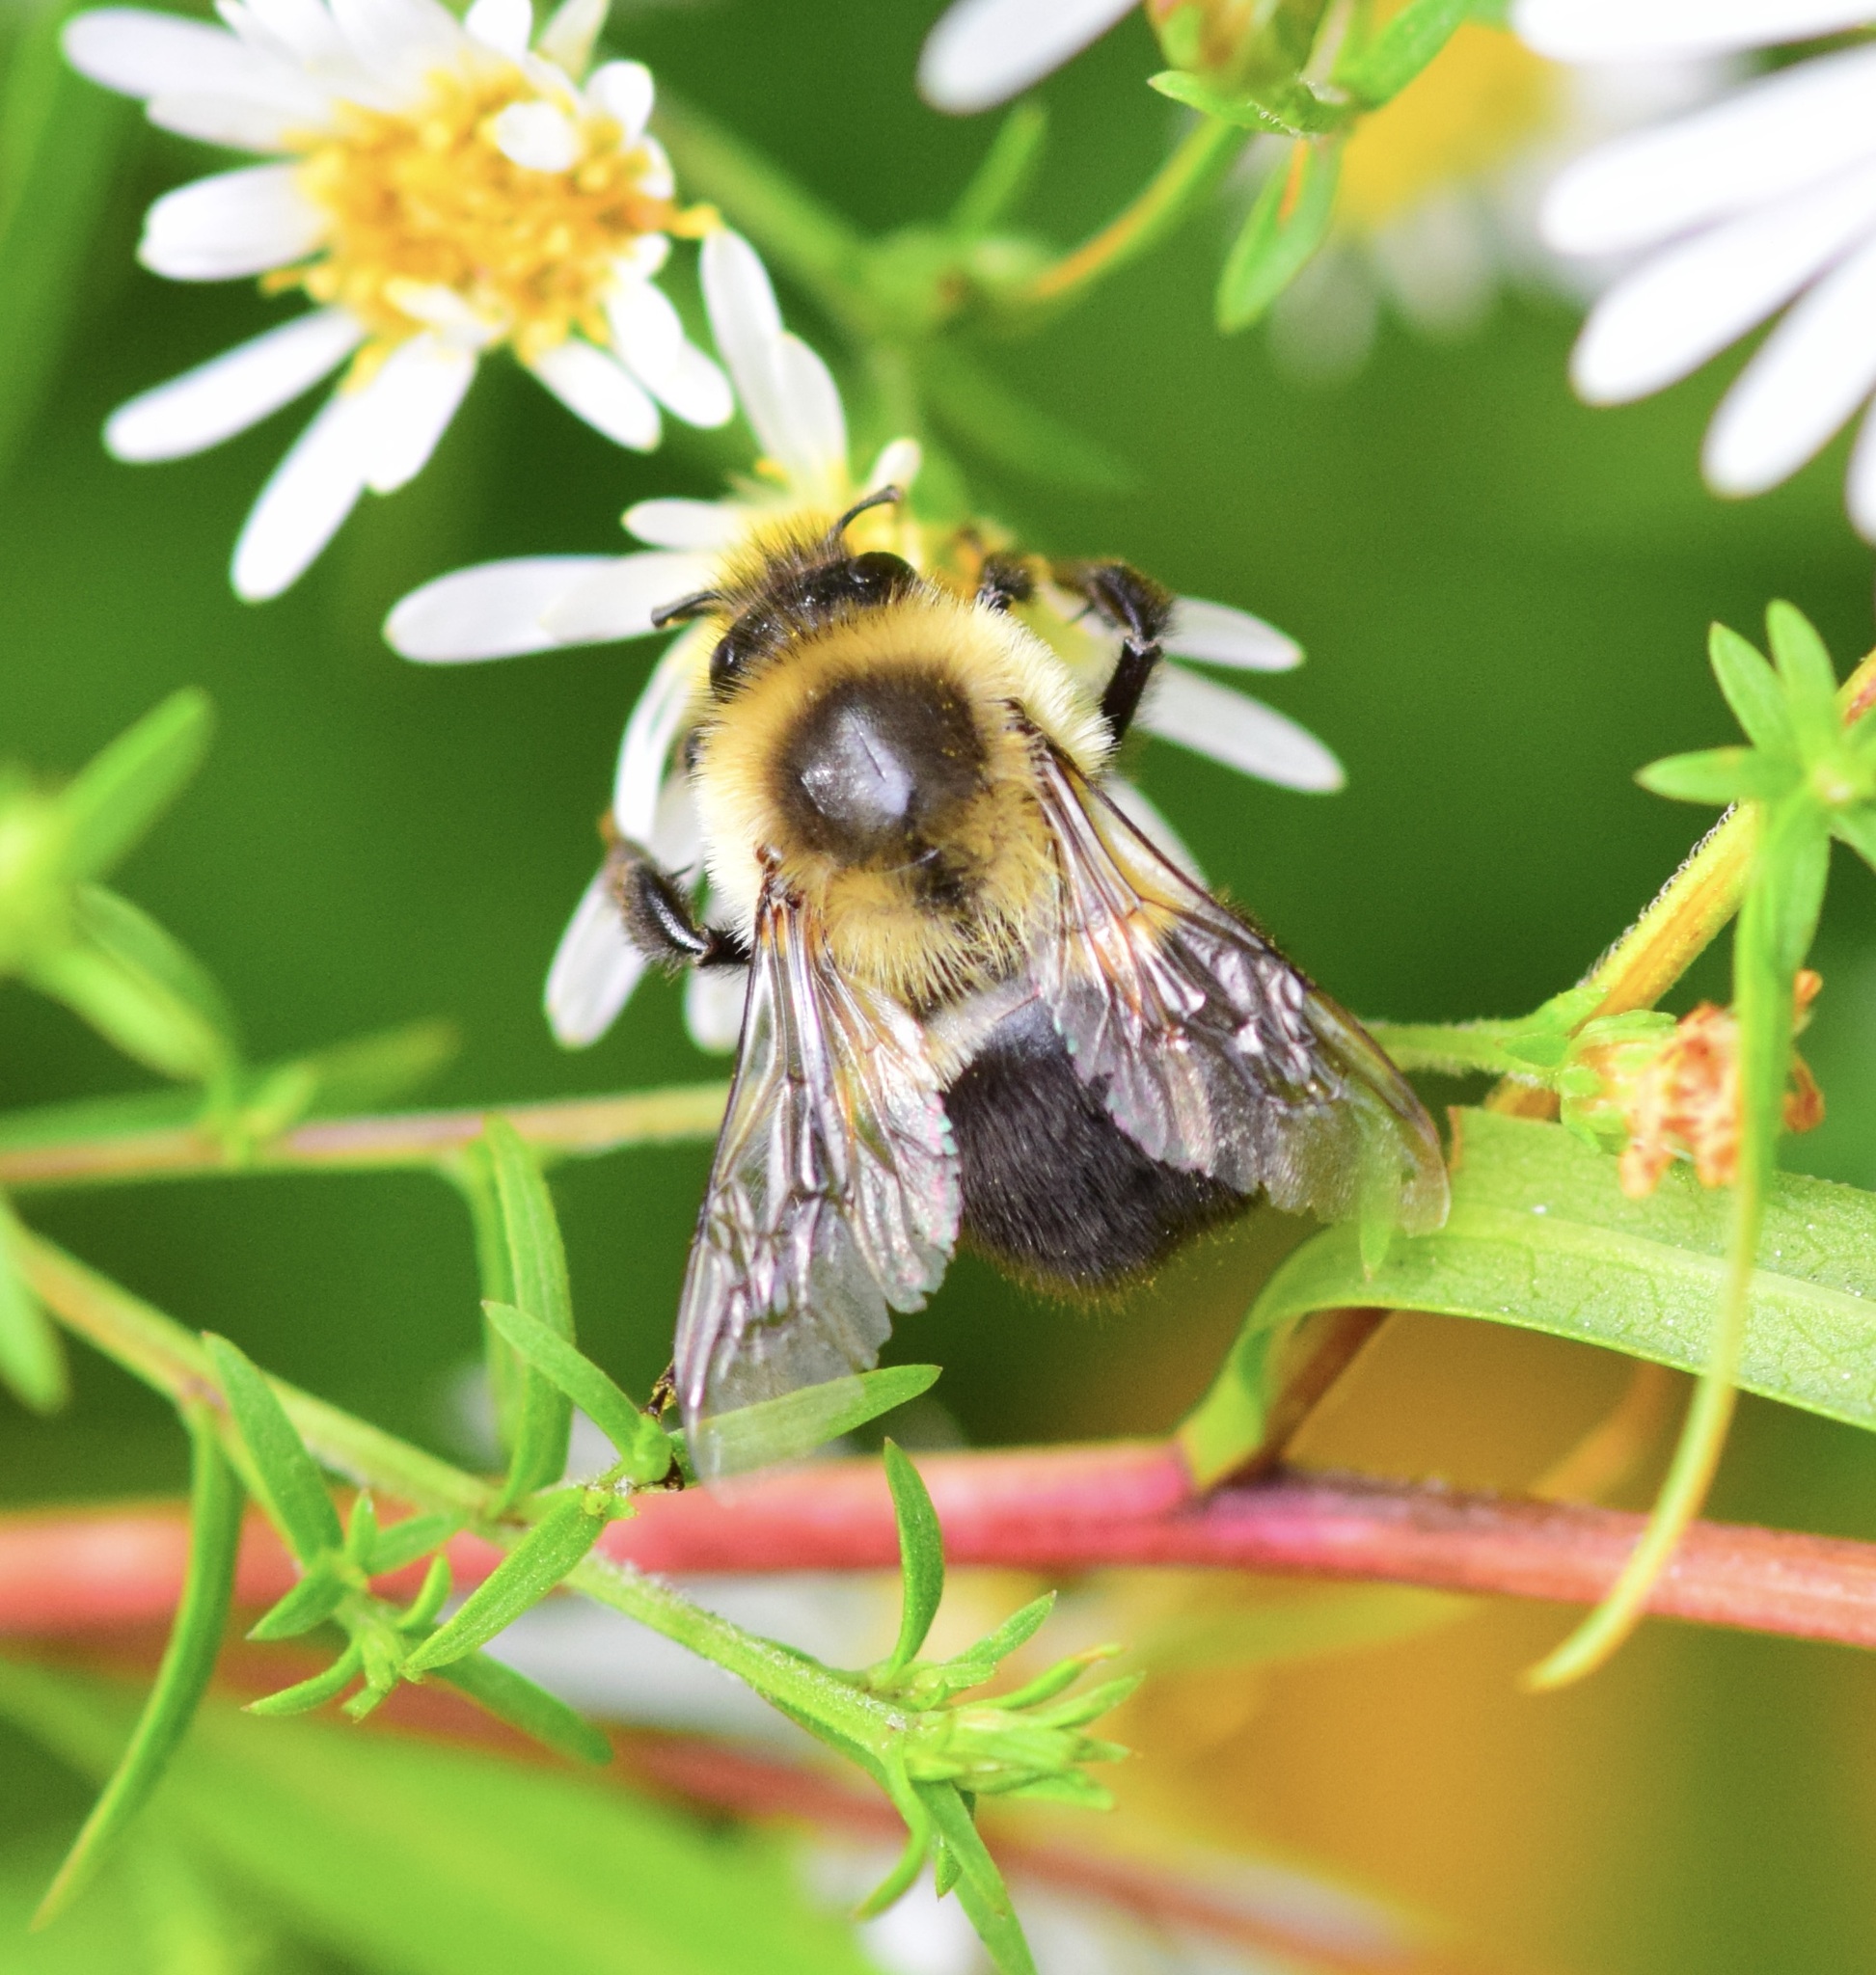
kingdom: Animalia
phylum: Arthropoda
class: Insecta
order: Hymenoptera
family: Apidae
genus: Bombus
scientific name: Bombus impatiens
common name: Common eastern bumble bee
